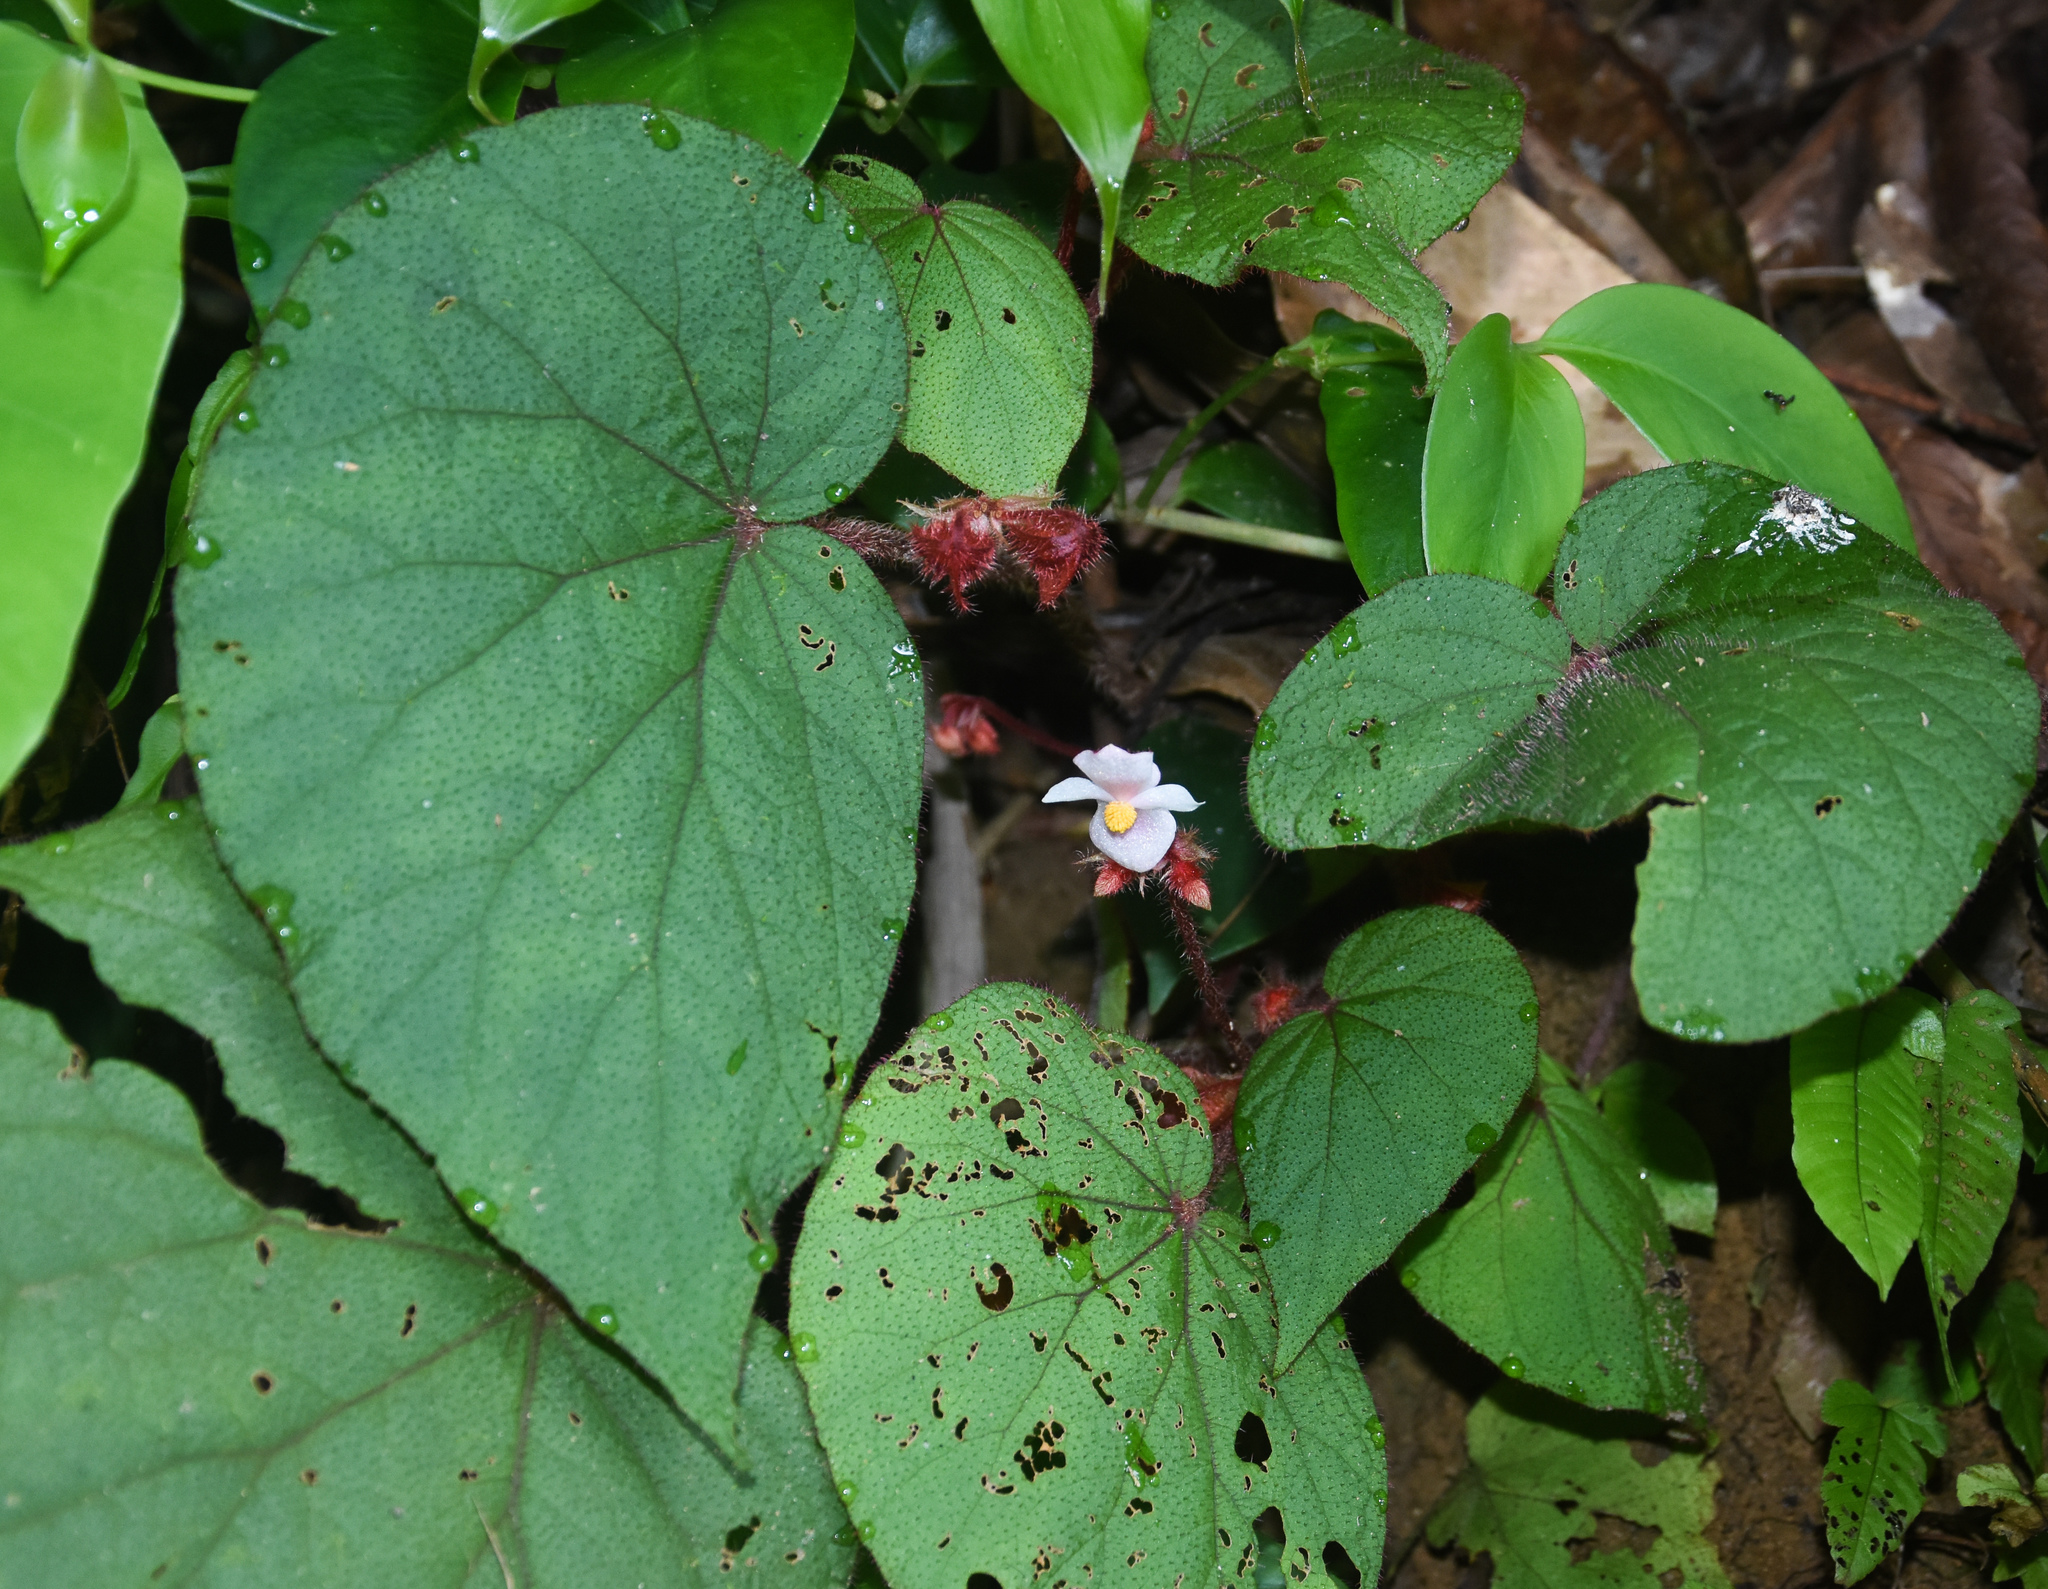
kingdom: Plantae
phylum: Tracheophyta
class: Magnoliopsida
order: Cucurbitales
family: Begoniaceae
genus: Begonia
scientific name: Begonia cathcartii
